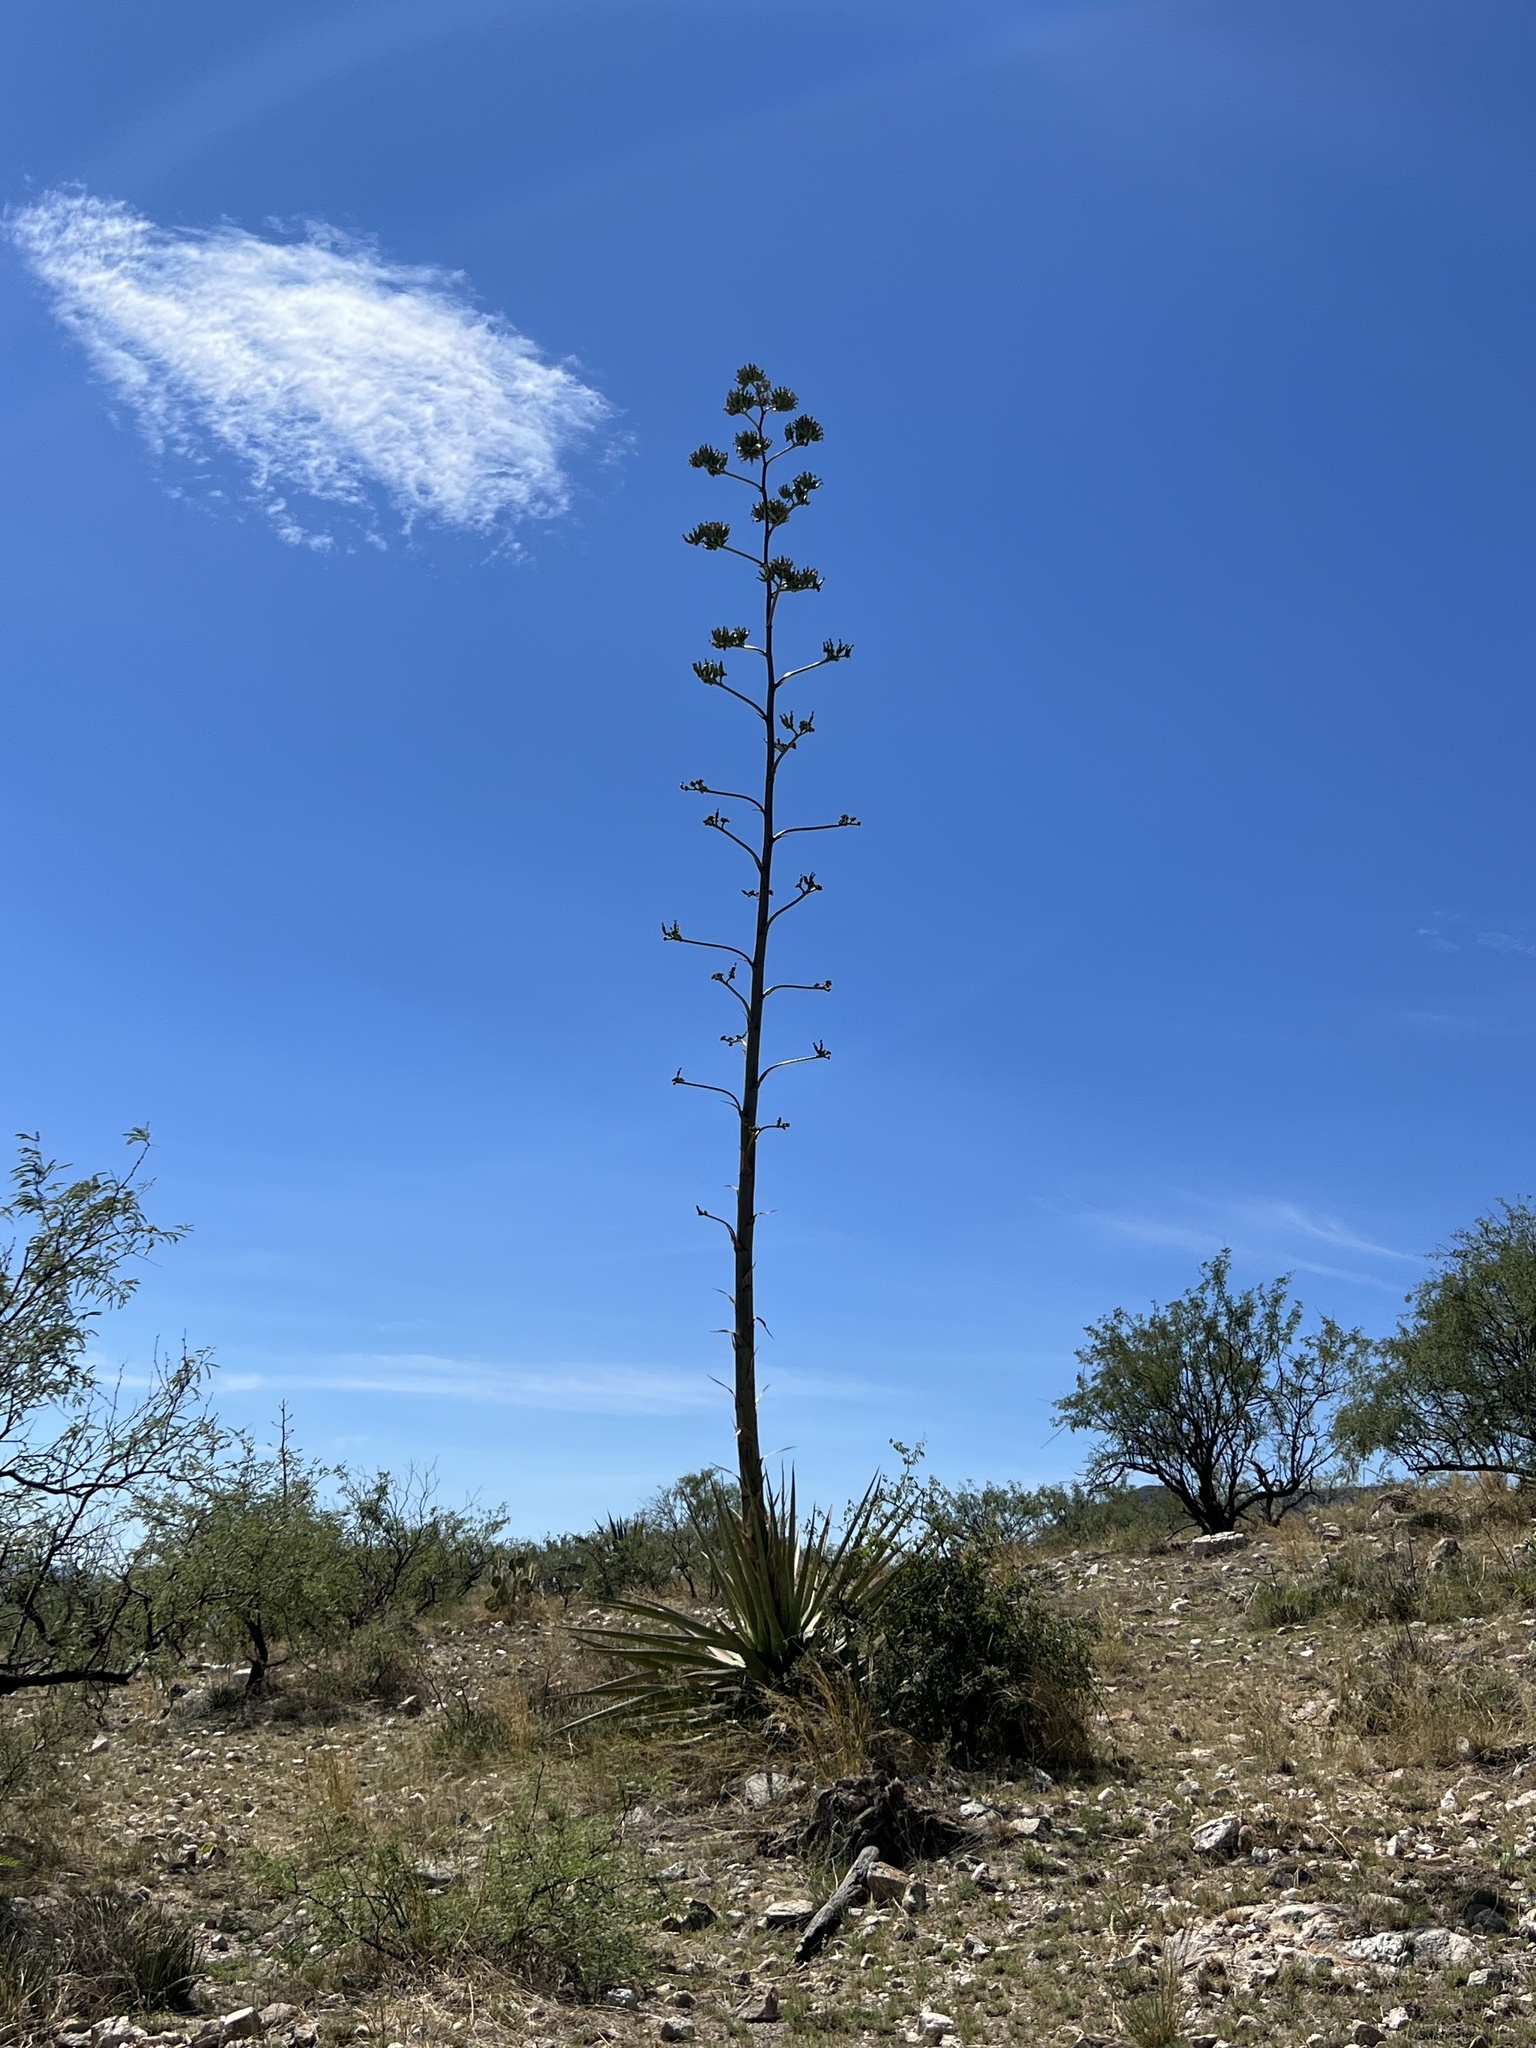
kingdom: Plantae
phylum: Tracheophyta
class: Liliopsida
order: Asparagales
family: Asparagaceae
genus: Agave
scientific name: Agave palmeri
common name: Palmer agave
